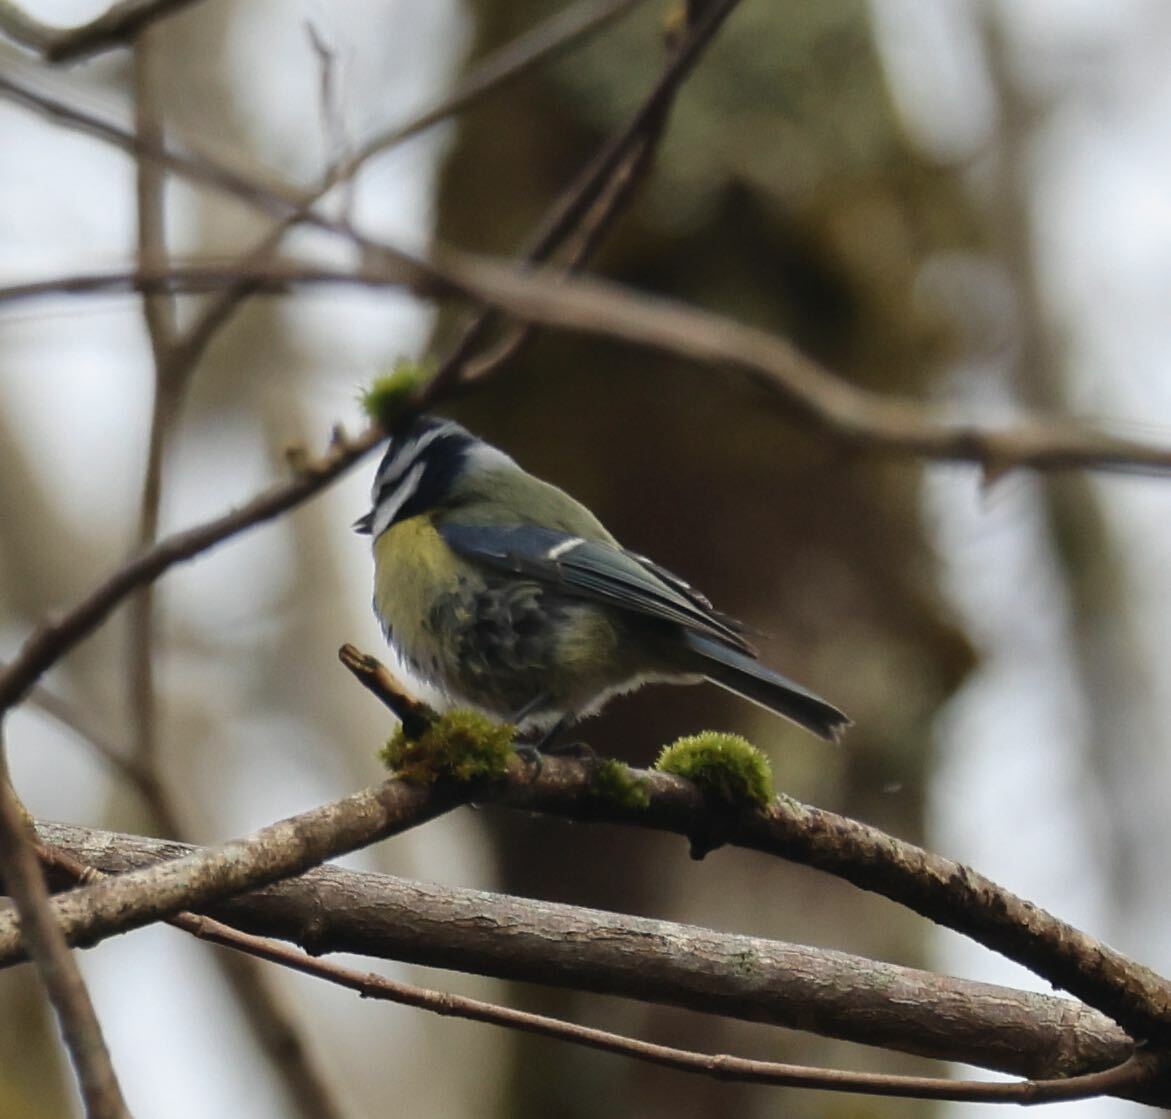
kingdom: Animalia
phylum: Chordata
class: Aves
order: Passeriformes
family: Paridae
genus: Cyanistes
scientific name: Cyanistes caeruleus
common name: Eurasian blue tit
